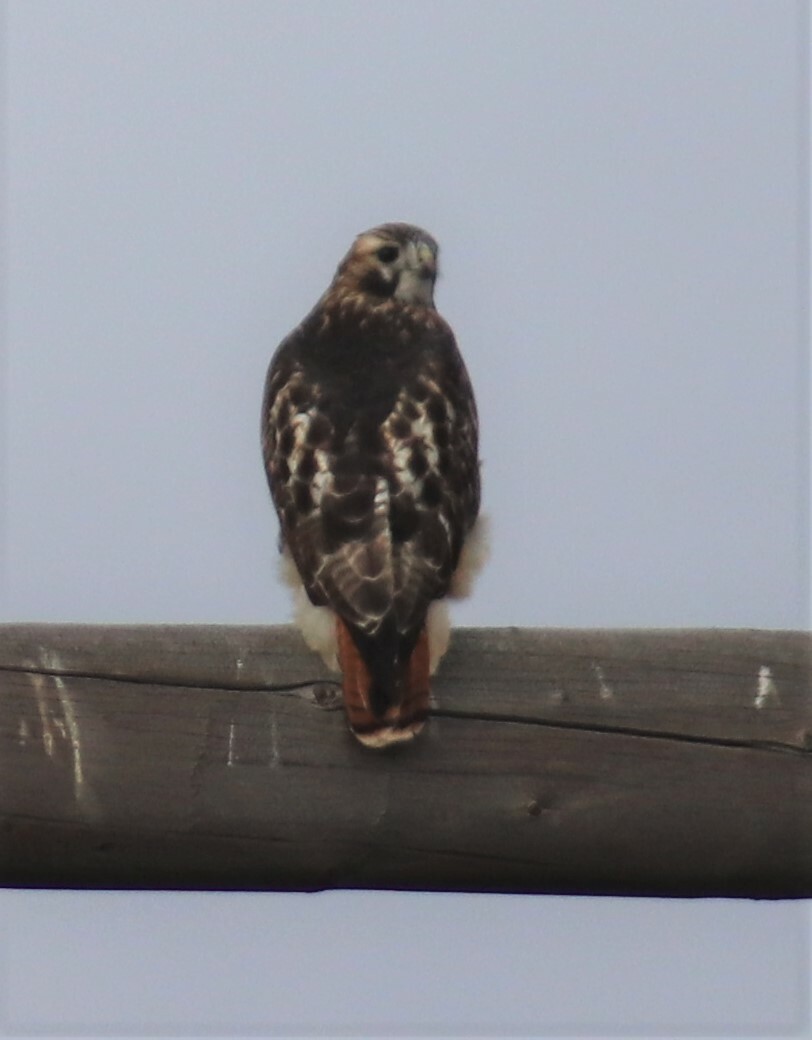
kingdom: Animalia
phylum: Chordata
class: Aves
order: Accipitriformes
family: Accipitridae
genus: Buteo
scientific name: Buteo jamaicensis
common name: Red-tailed hawk
